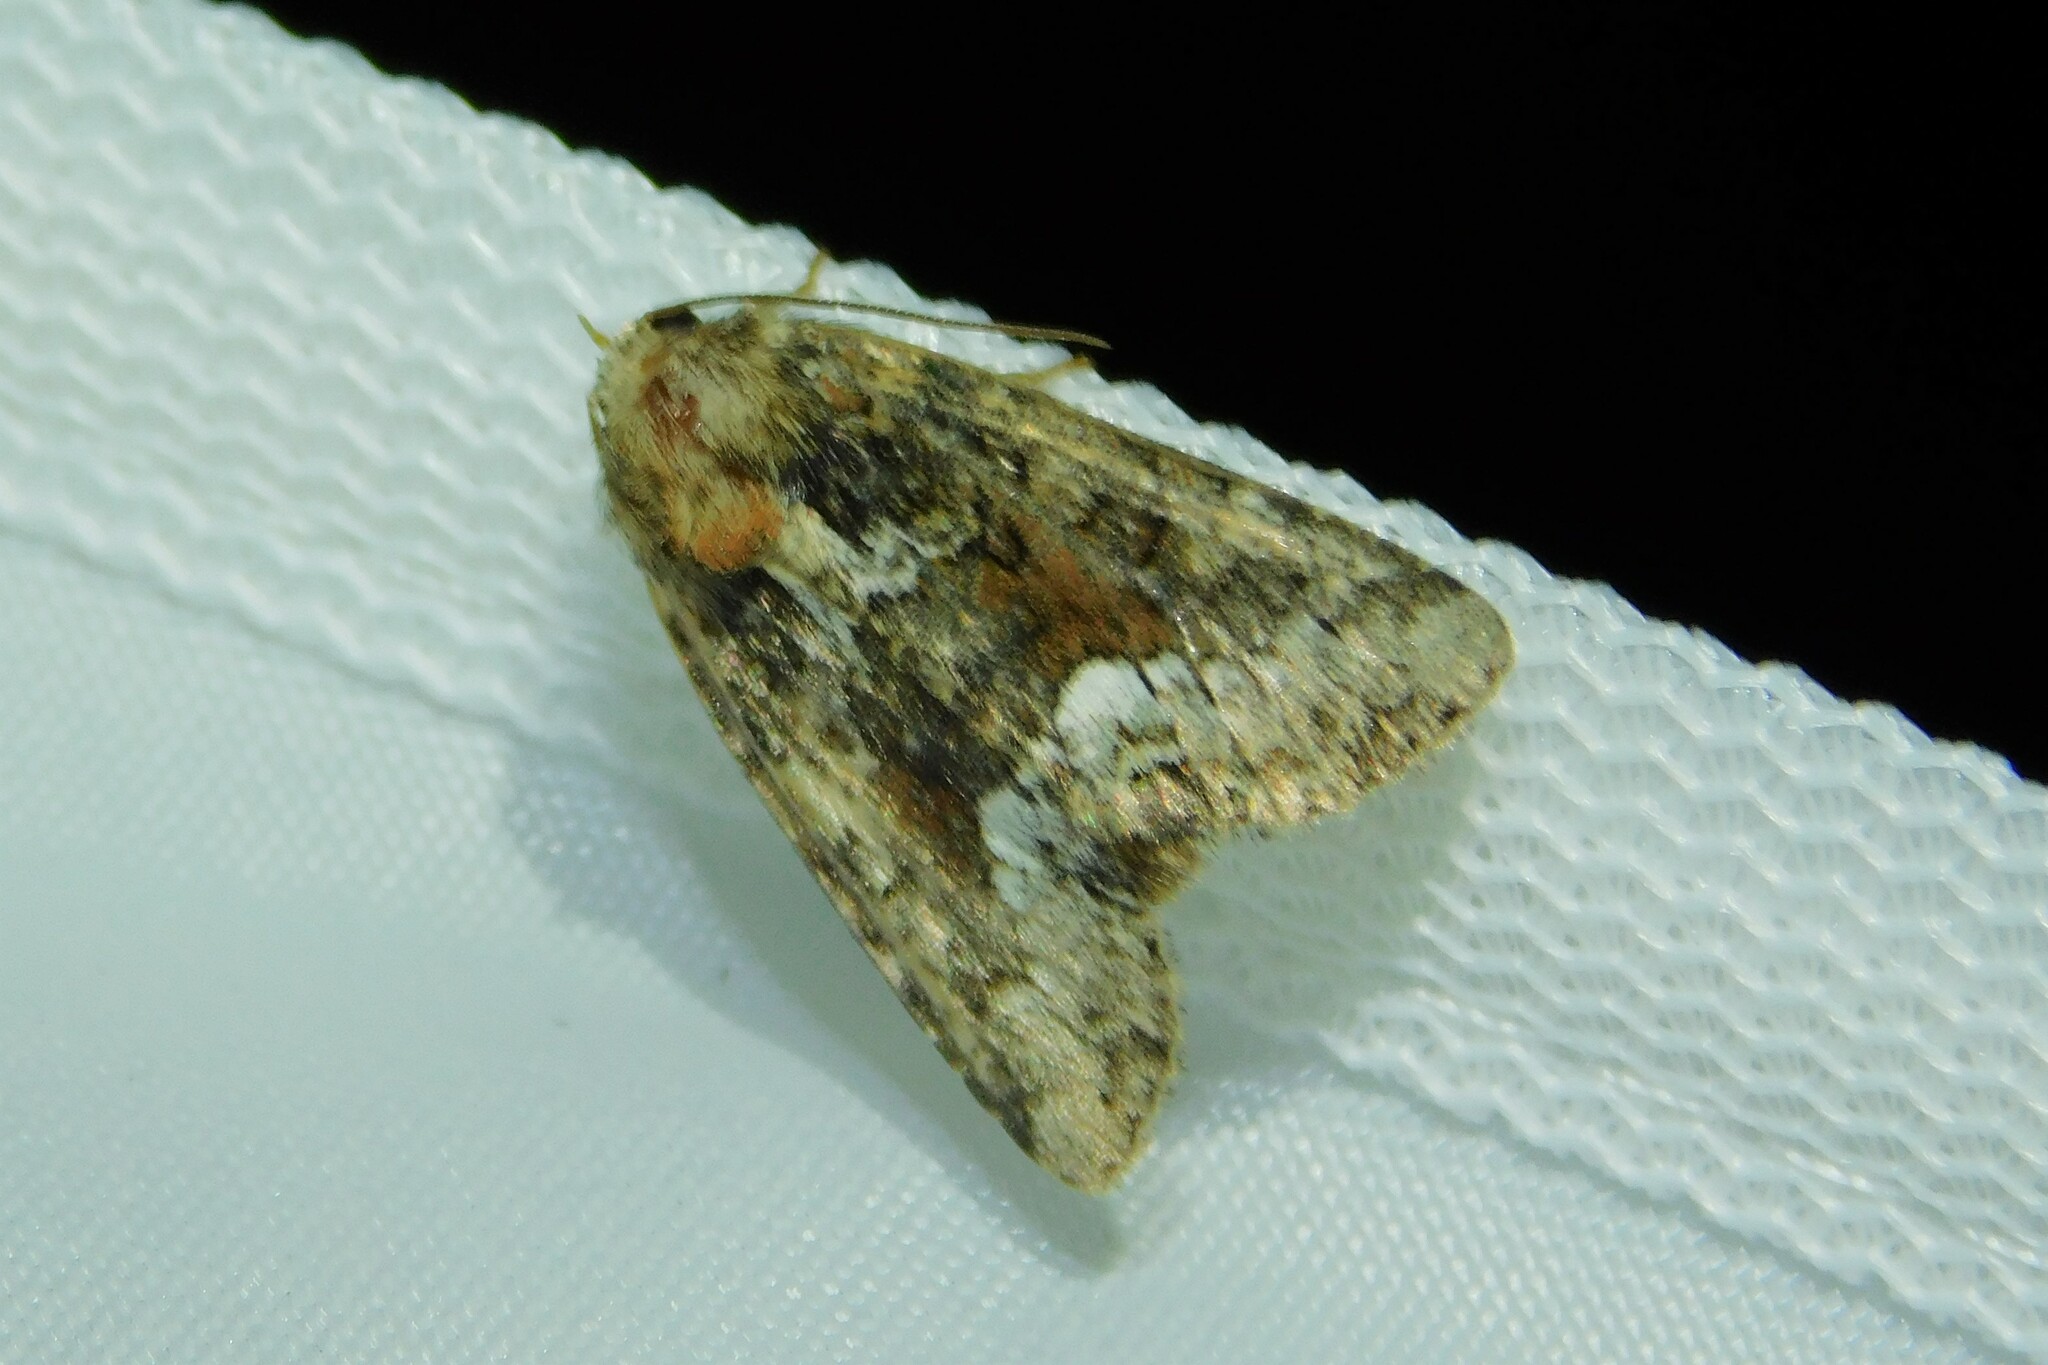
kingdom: Animalia
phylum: Arthropoda
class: Insecta
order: Lepidoptera
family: Noctuidae
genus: Oligia
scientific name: Oligia
